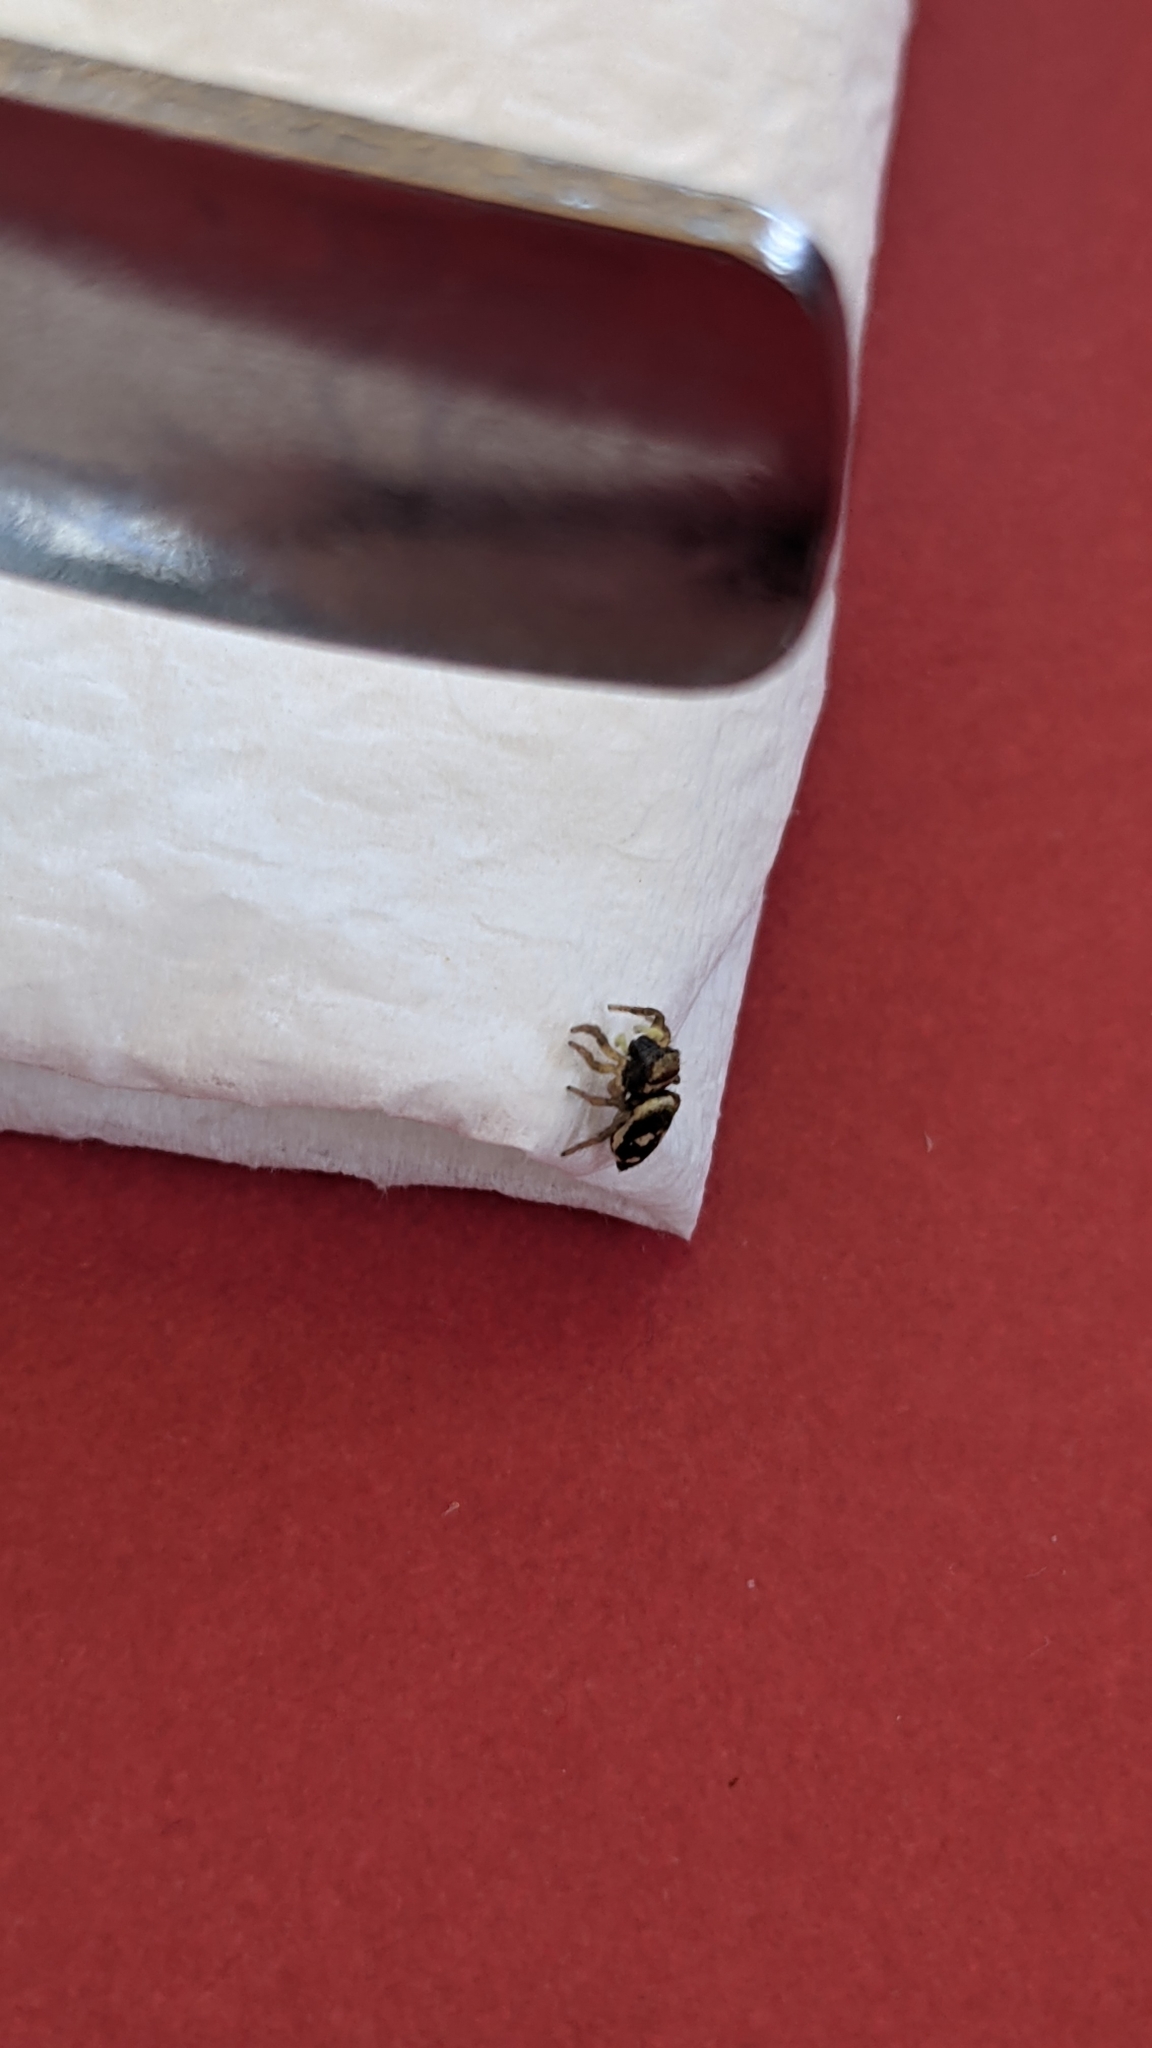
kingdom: Animalia
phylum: Arthropoda
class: Arachnida
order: Araneae
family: Salticidae
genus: Heliophanus
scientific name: Heliophanus apiatus
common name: Sun jumping spider
